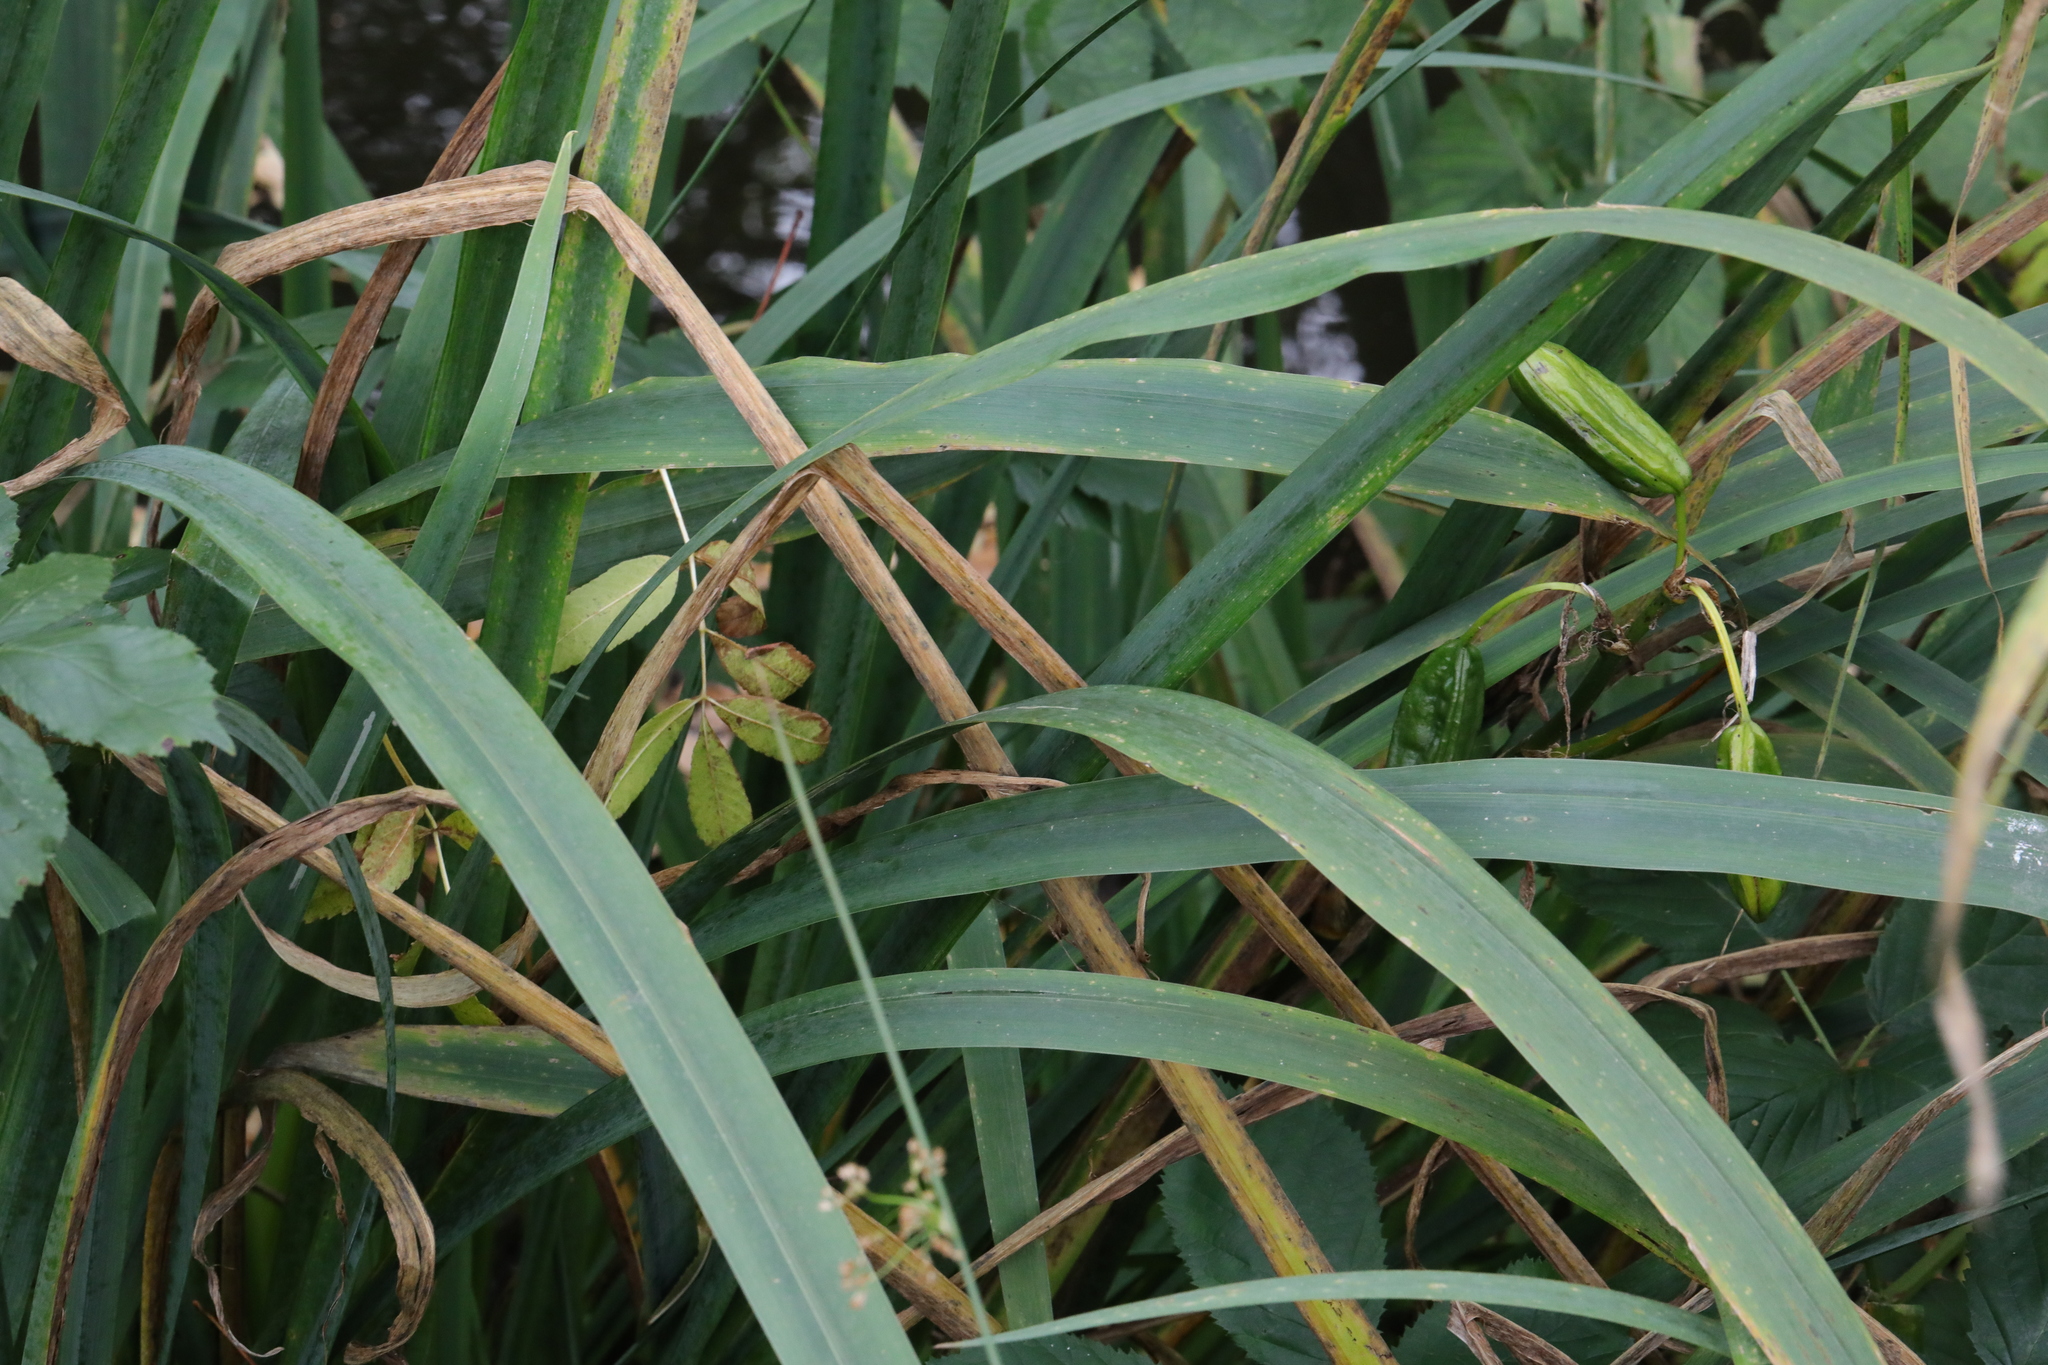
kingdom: Plantae
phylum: Tracheophyta
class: Liliopsida
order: Asparagales
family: Iridaceae
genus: Iris
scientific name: Iris pseudacorus
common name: Yellow flag
